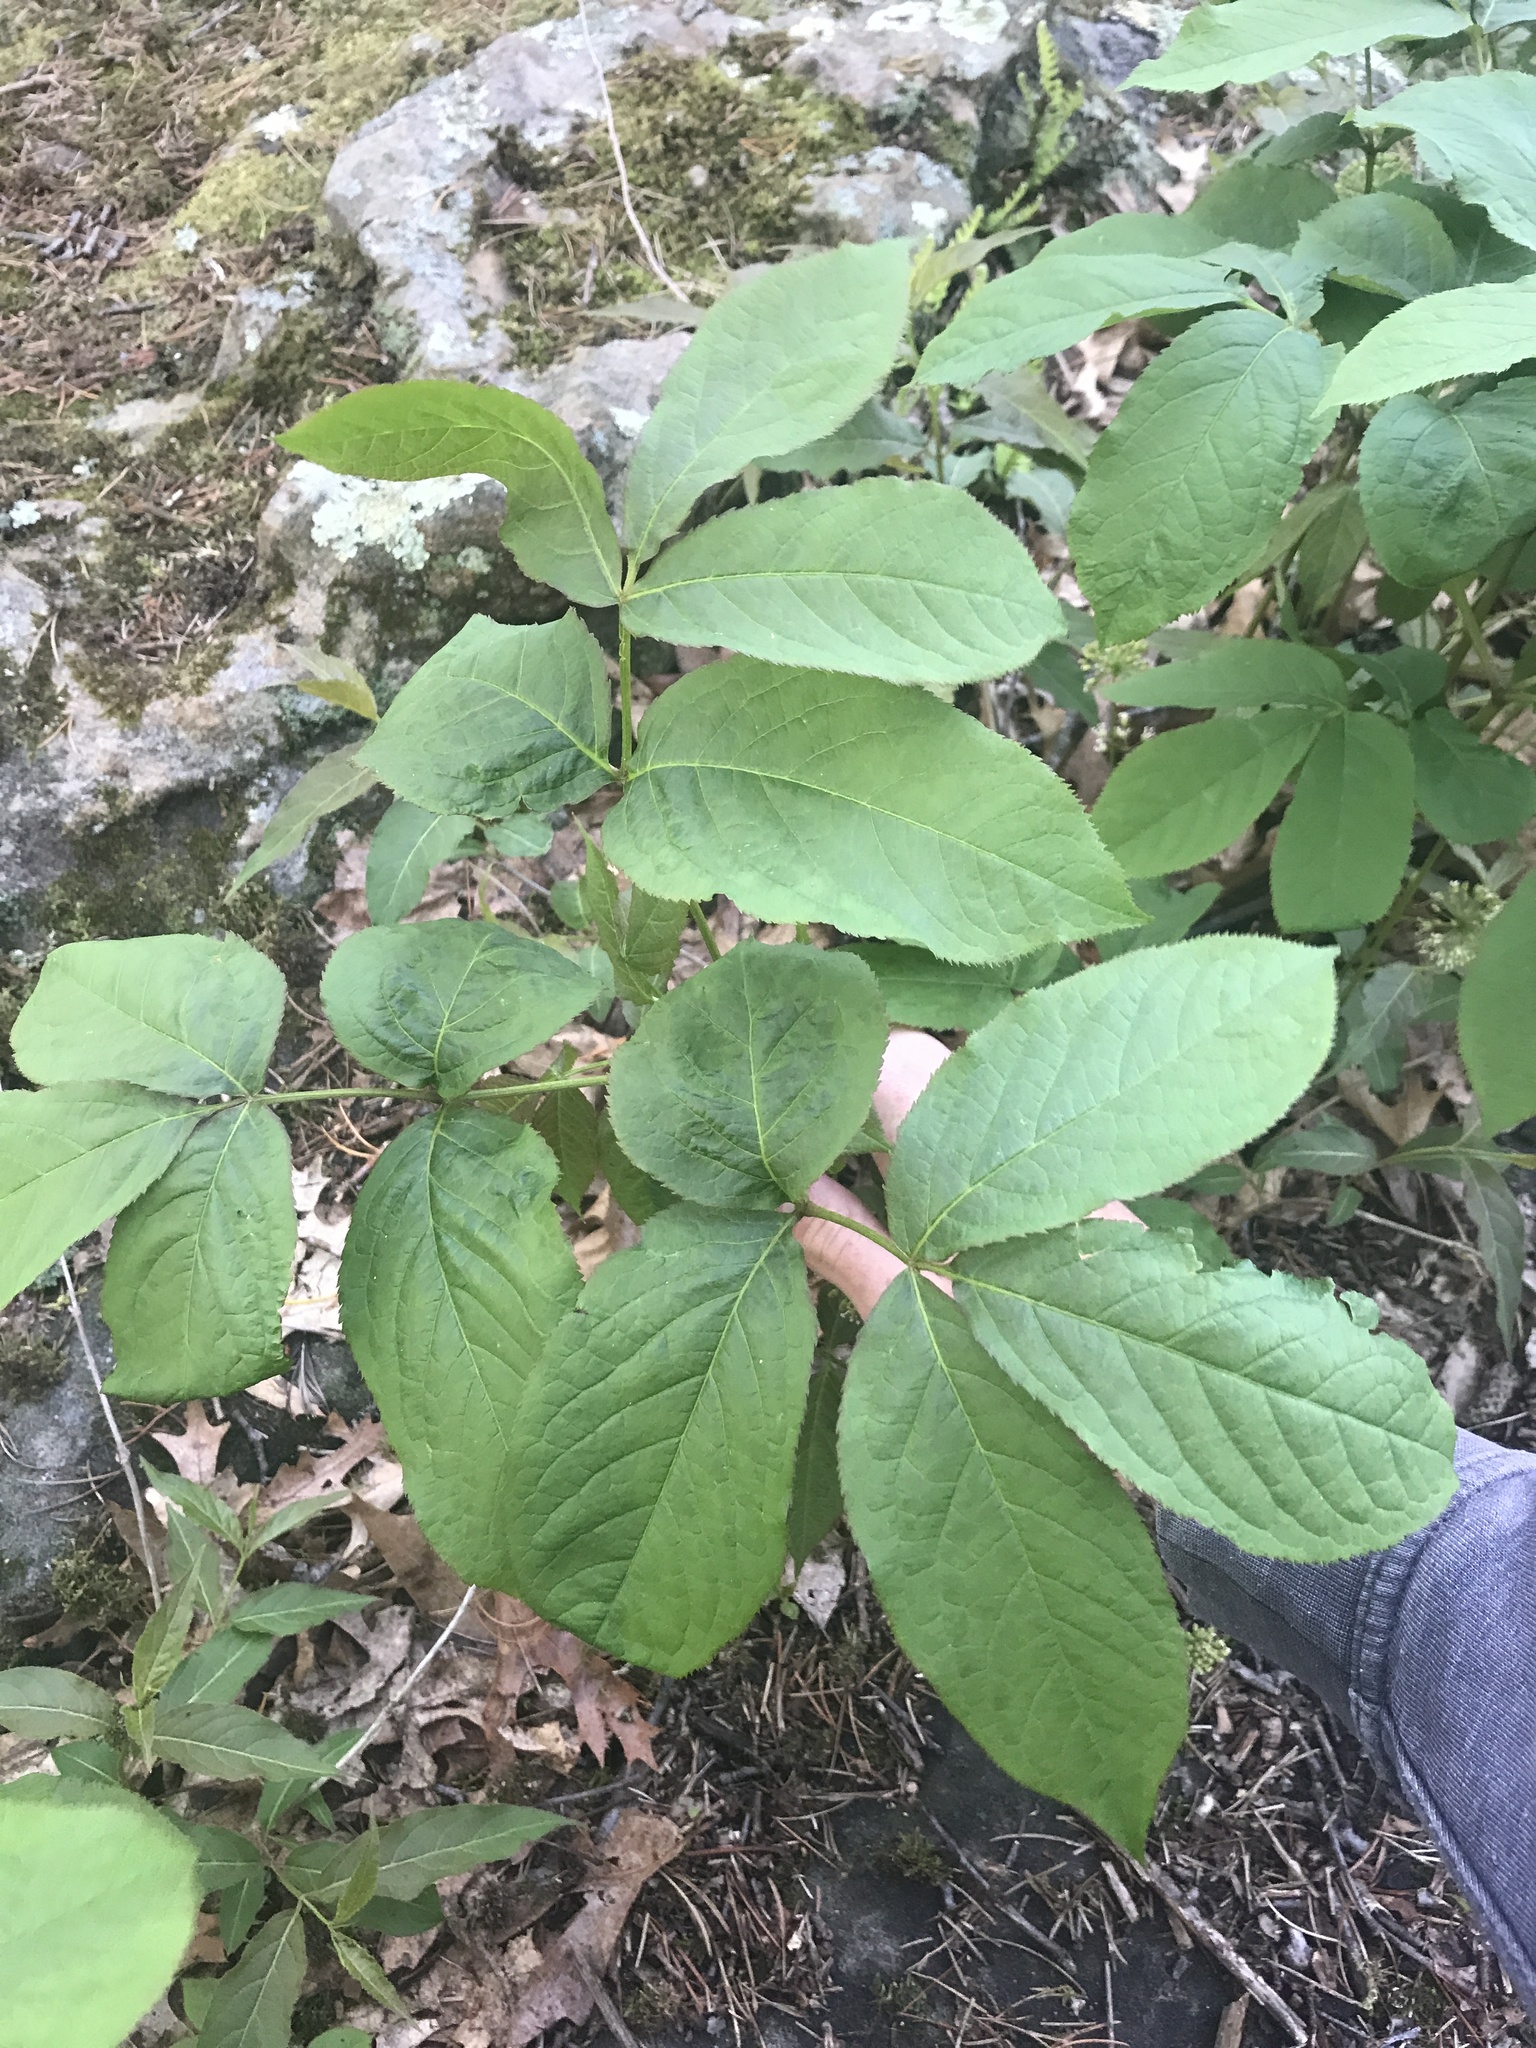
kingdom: Plantae
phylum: Tracheophyta
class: Magnoliopsida
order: Apiales
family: Araliaceae
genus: Aralia
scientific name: Aralia nudicaulis
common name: Wild sarsaparilla
